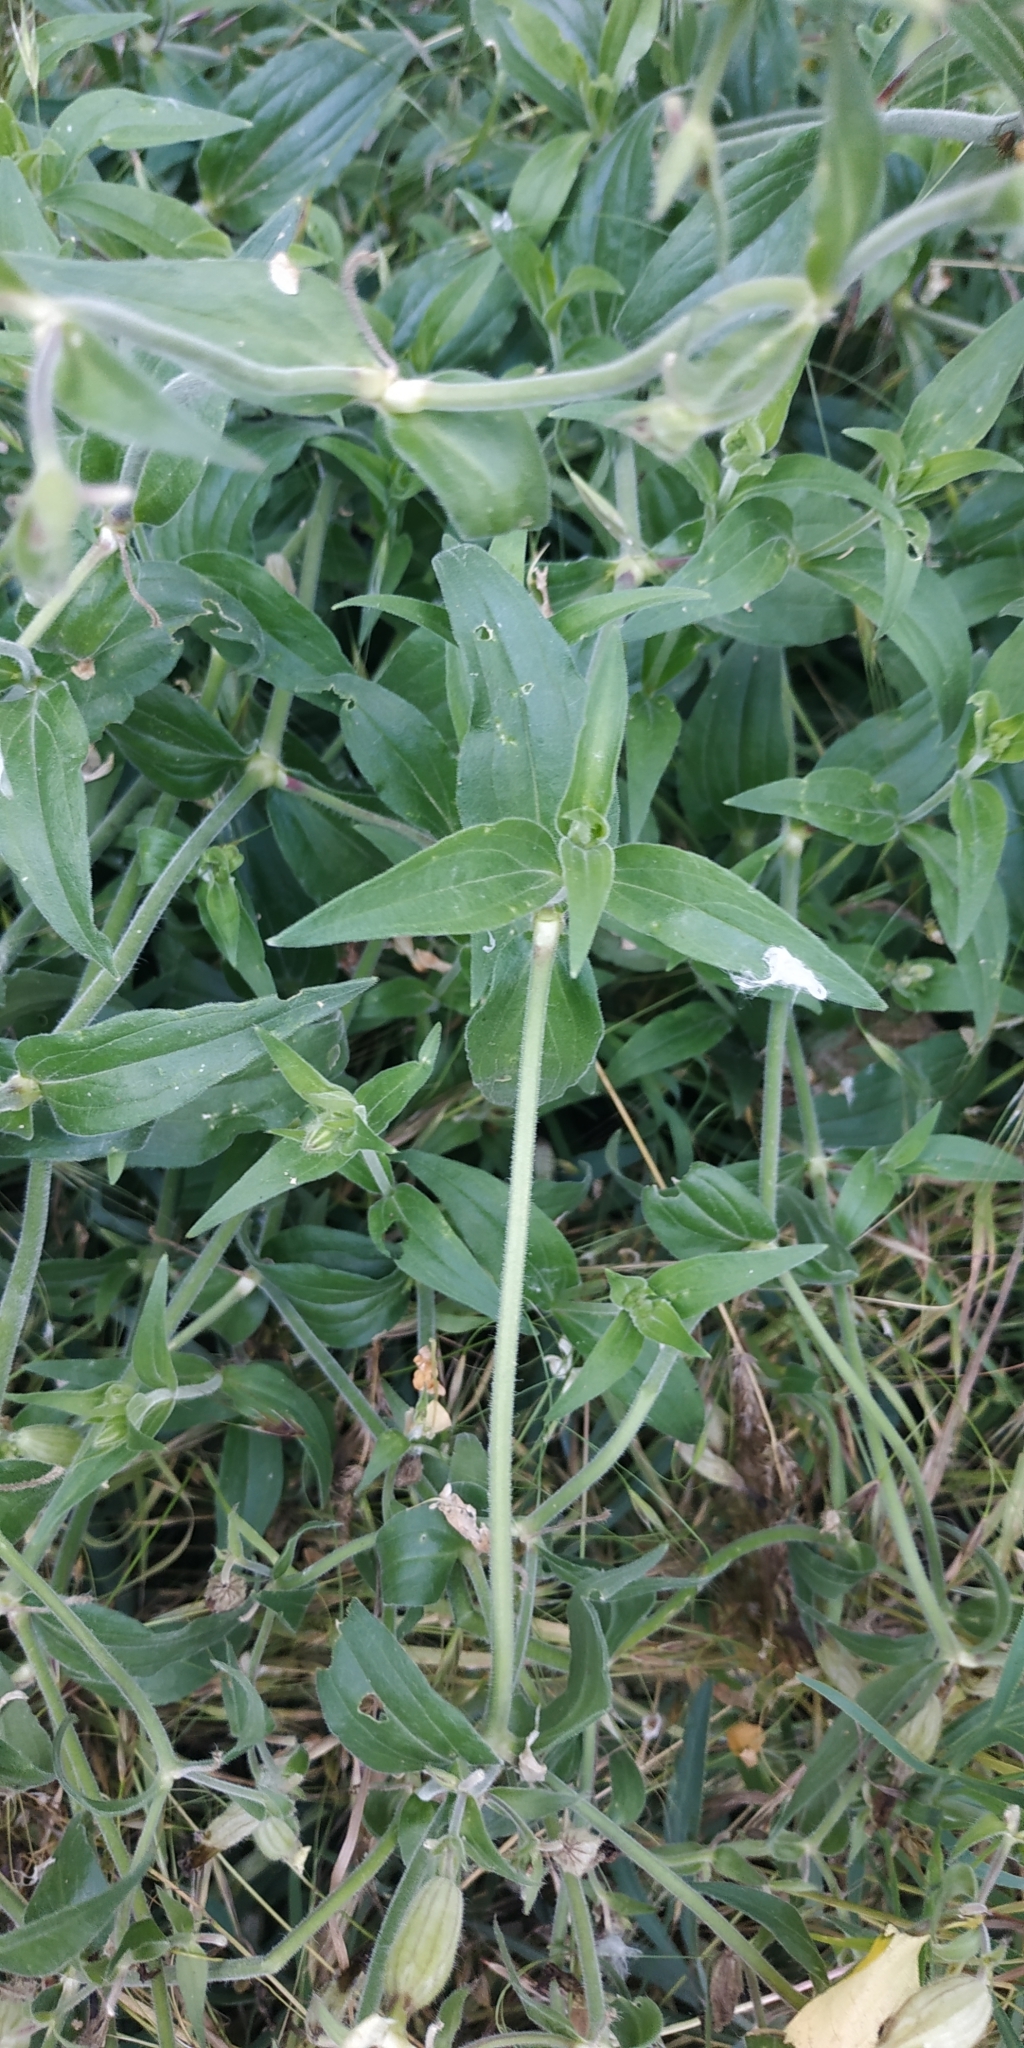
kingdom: Plantae
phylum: Tracheophyta
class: Magnoliopsida
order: Caryophyllales
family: Caryophyllaceae
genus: Silene
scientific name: Silene latifolia
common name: White campion
